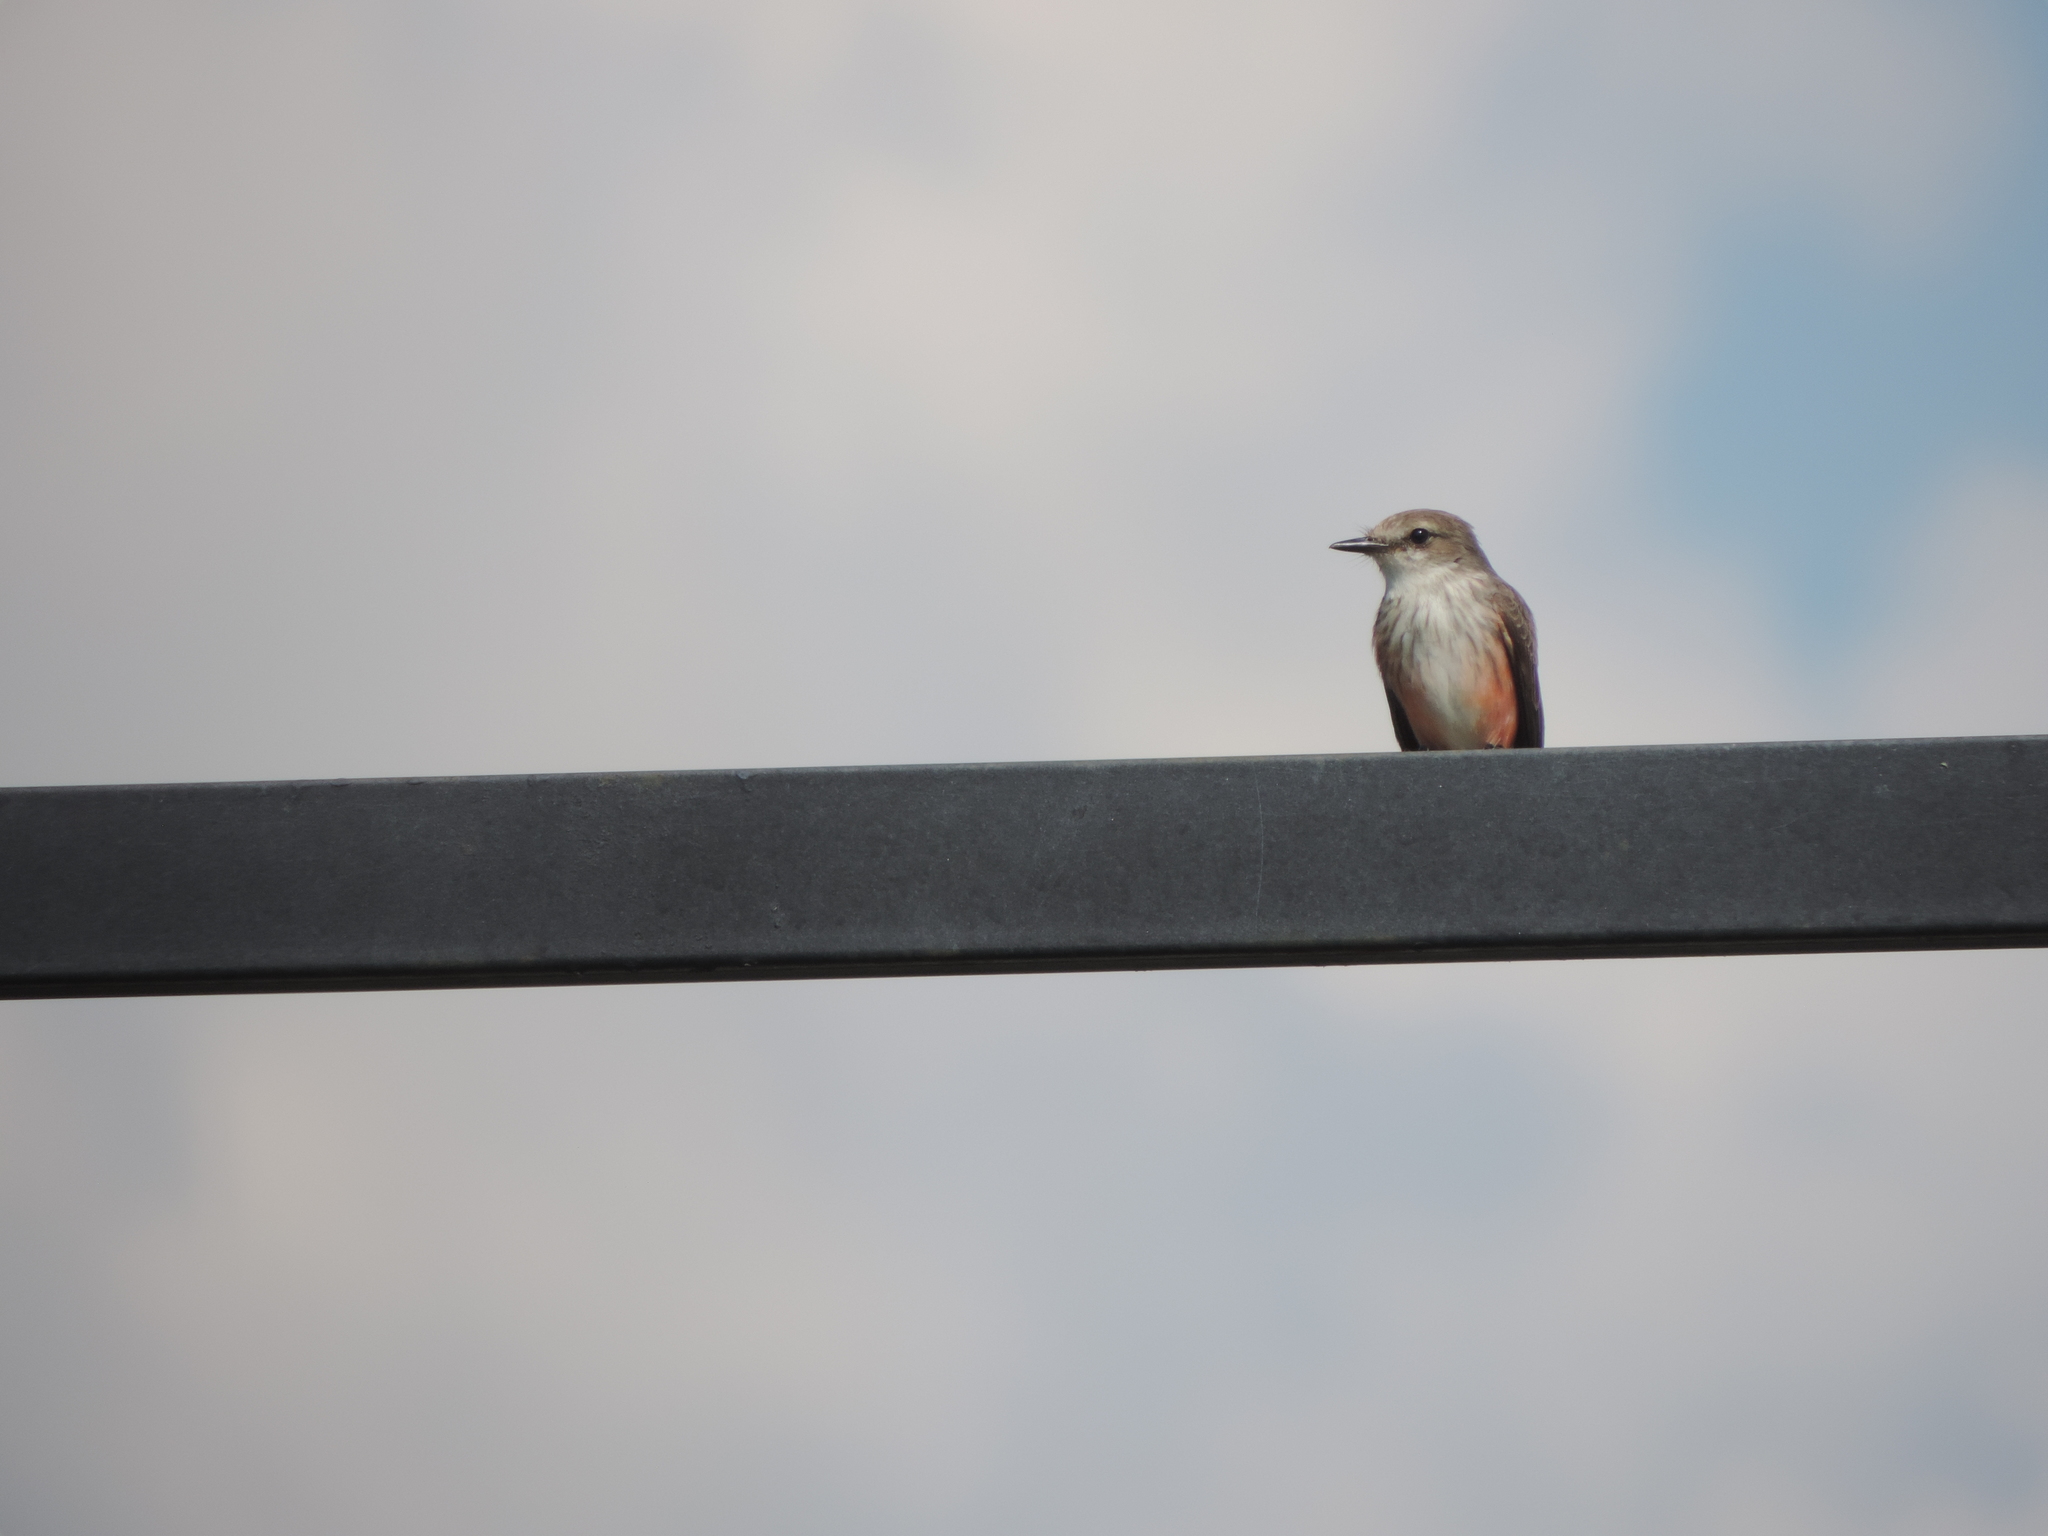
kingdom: Animalia
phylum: Chordata
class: Aves
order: Passeriformes
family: Tyrannidae
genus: Pyrocephalus
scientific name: Pyrocephalus rubinus
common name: Vermilion flycatcher
